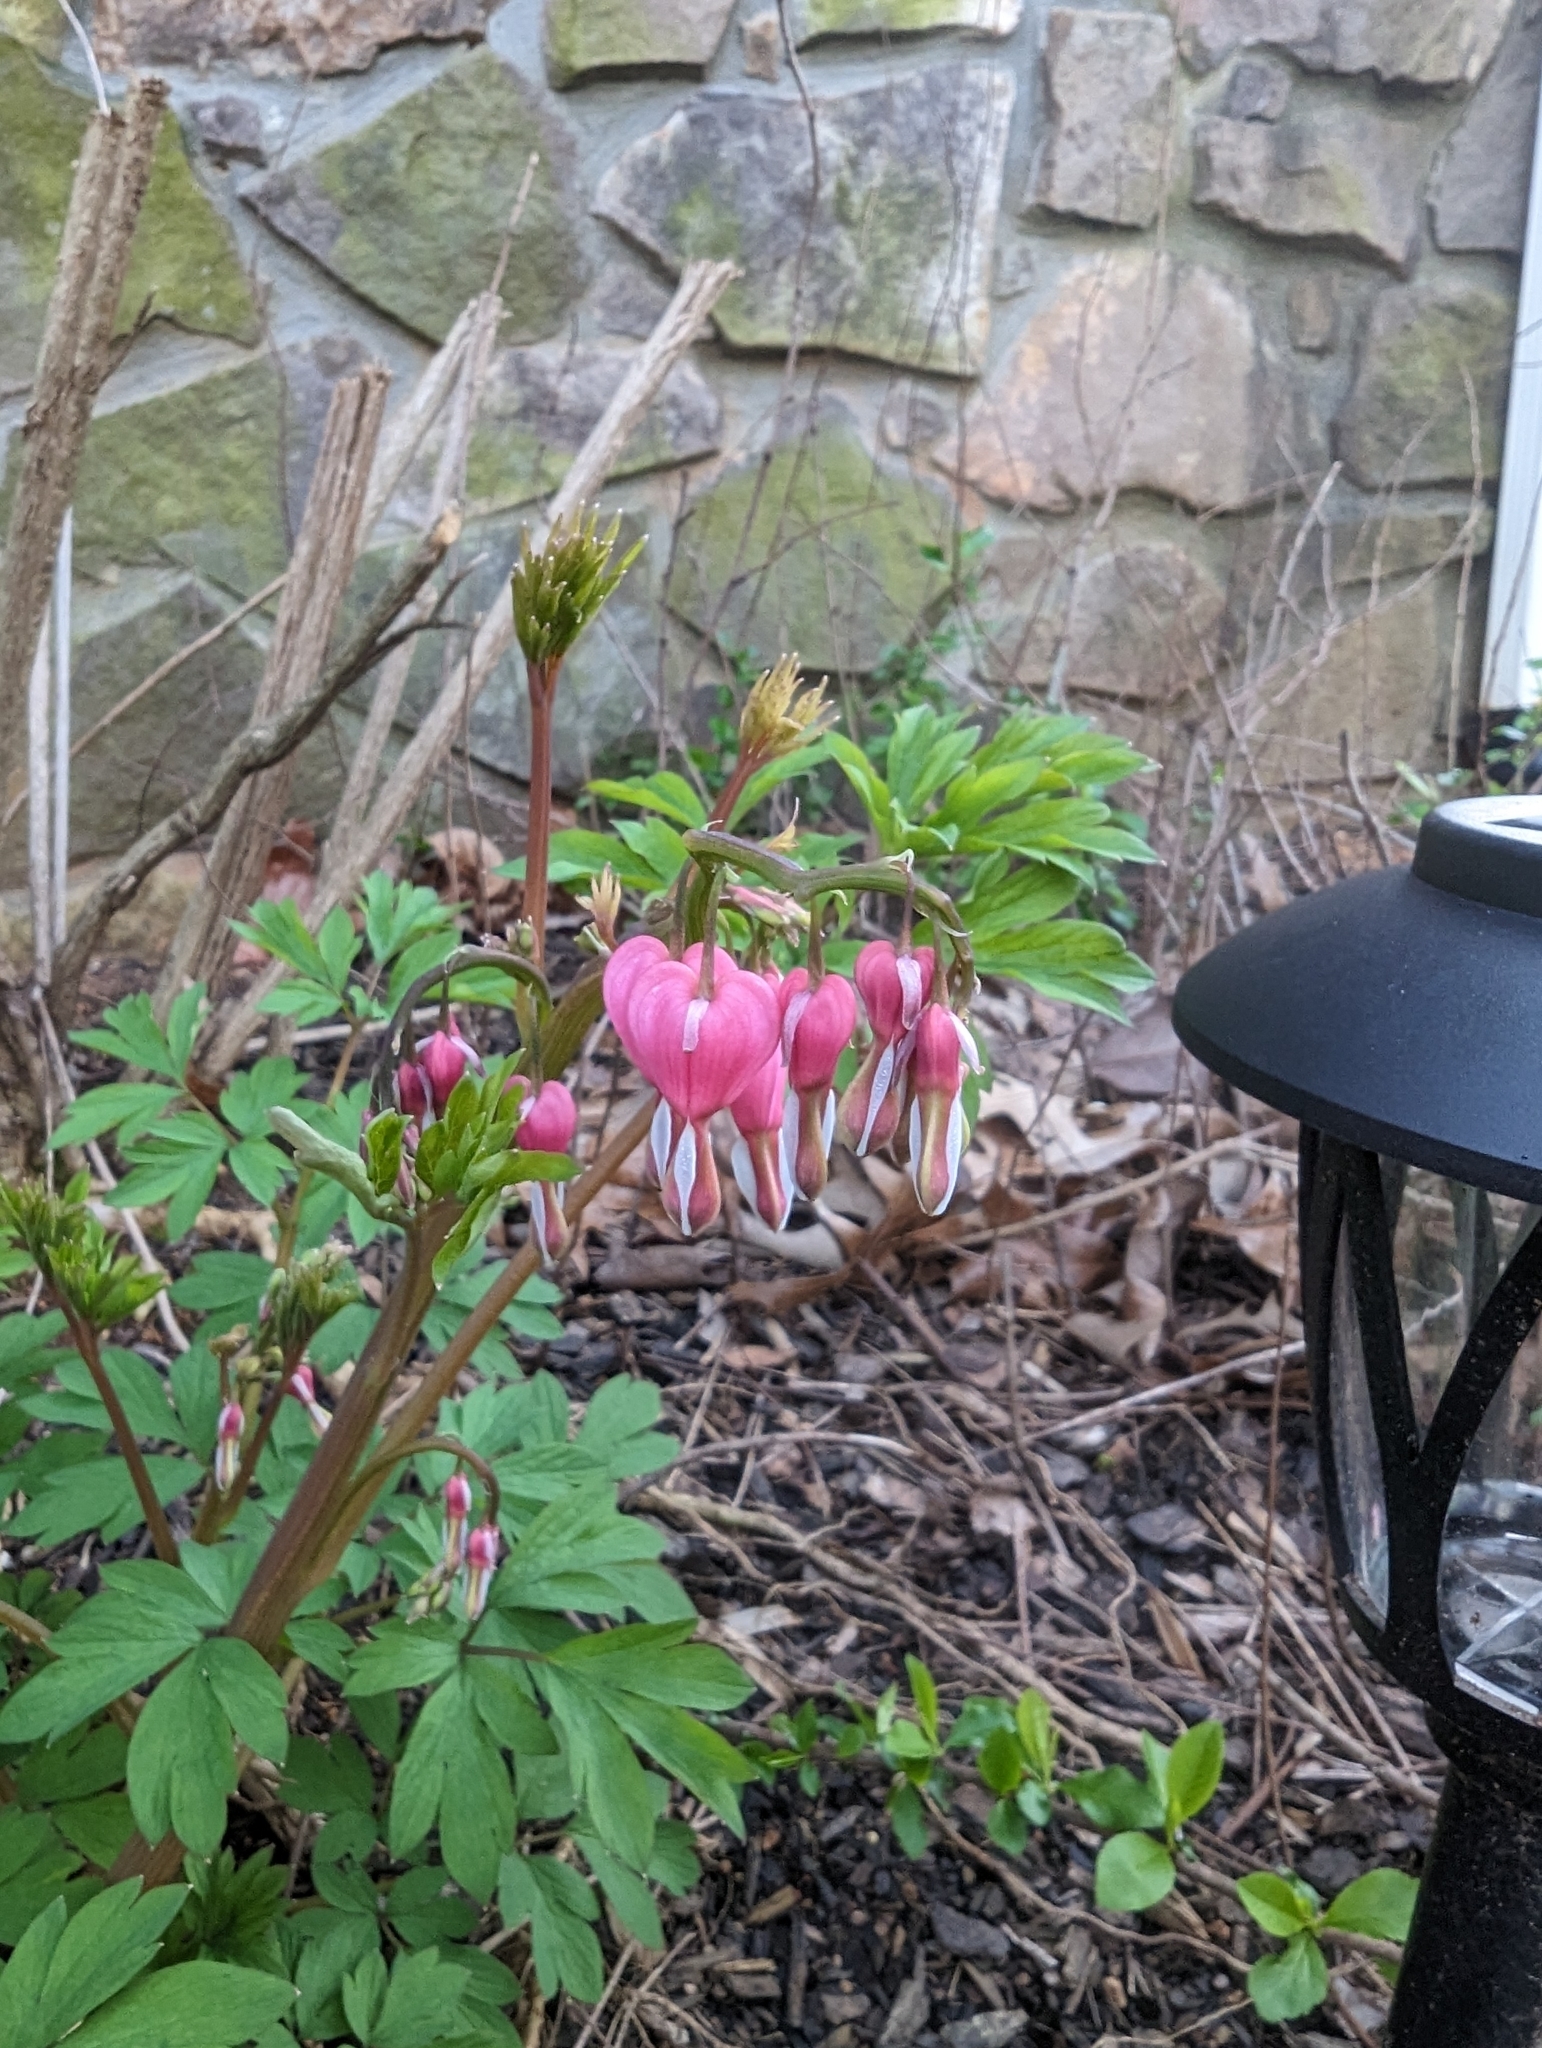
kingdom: Plantae
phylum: Tracheophyta
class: Magnoliopsida
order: Ranunculales
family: Papaveraceae
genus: Lamprocapnos
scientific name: Lamprocapnos spectabilis
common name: Asian bleeding-heart
